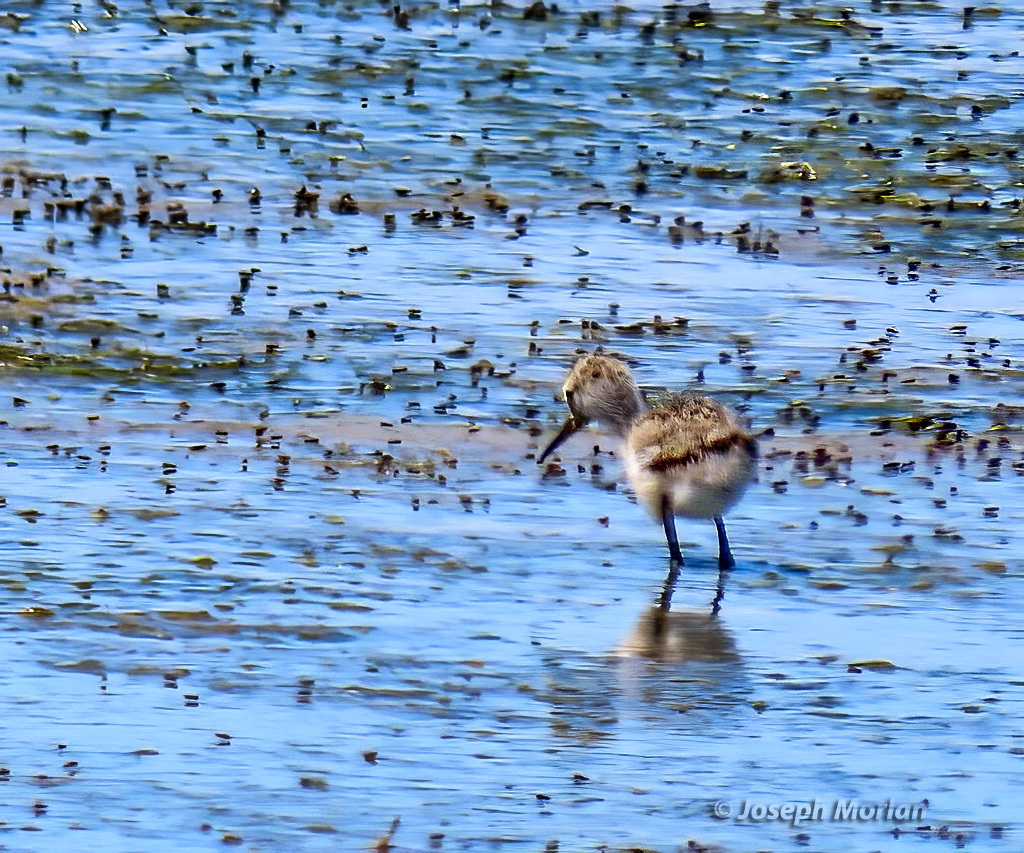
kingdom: Animalia
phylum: Chordata
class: Aves
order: Charadriiformes
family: Recurvirostridae
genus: Himantopus
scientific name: Himantopus mexicanus
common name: Black-necked stilt
